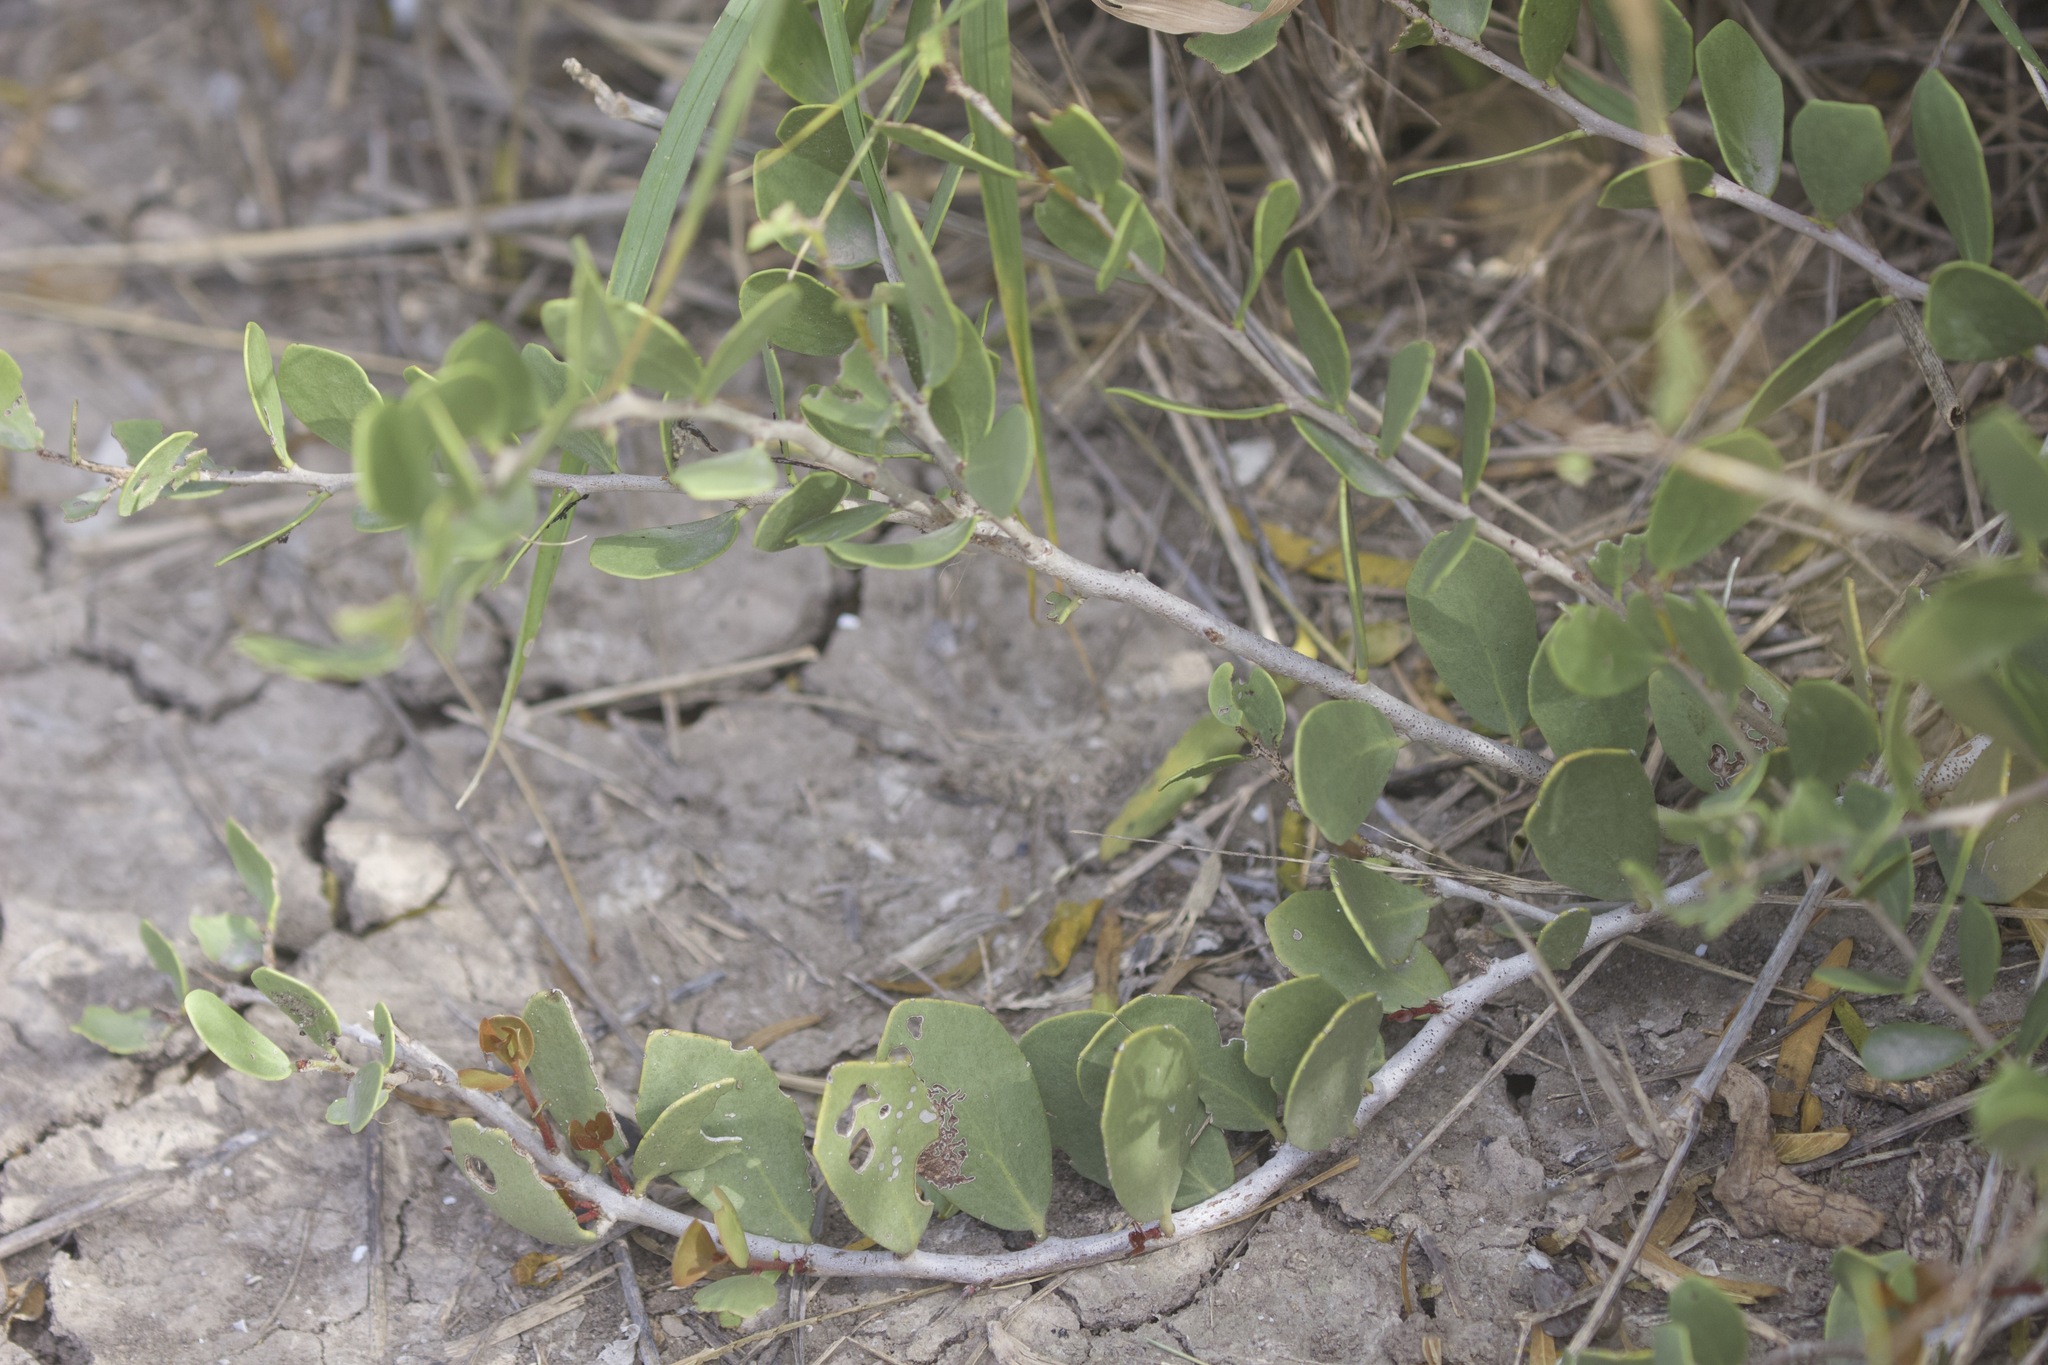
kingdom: Plantae
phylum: Tracheophyta
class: Magnoliopsida
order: Celastrales
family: Celastraceae
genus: Tricerma
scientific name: Tricerma phyllanthoides
